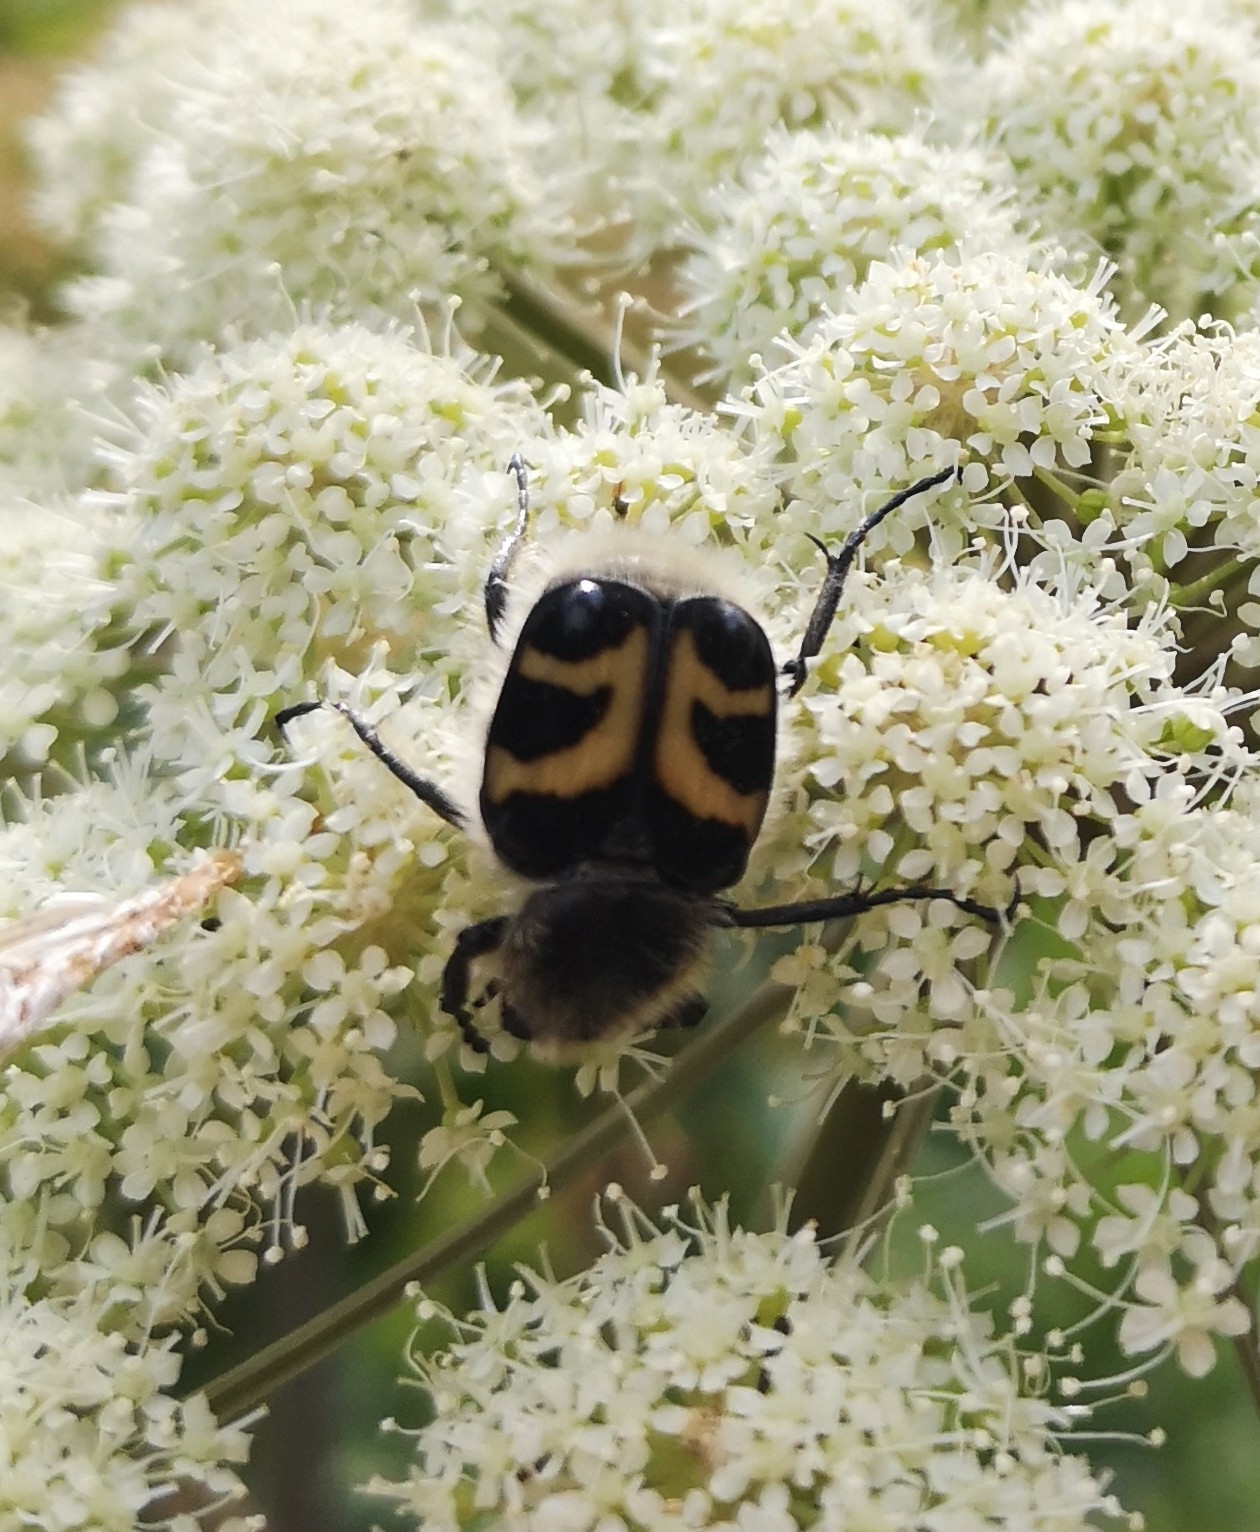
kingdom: Animalia
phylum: Arthropoda
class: Insecta
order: Coleoptera
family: Scarabaeidae
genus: Trichius
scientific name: Trichius fasciatus
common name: Bee beetle
